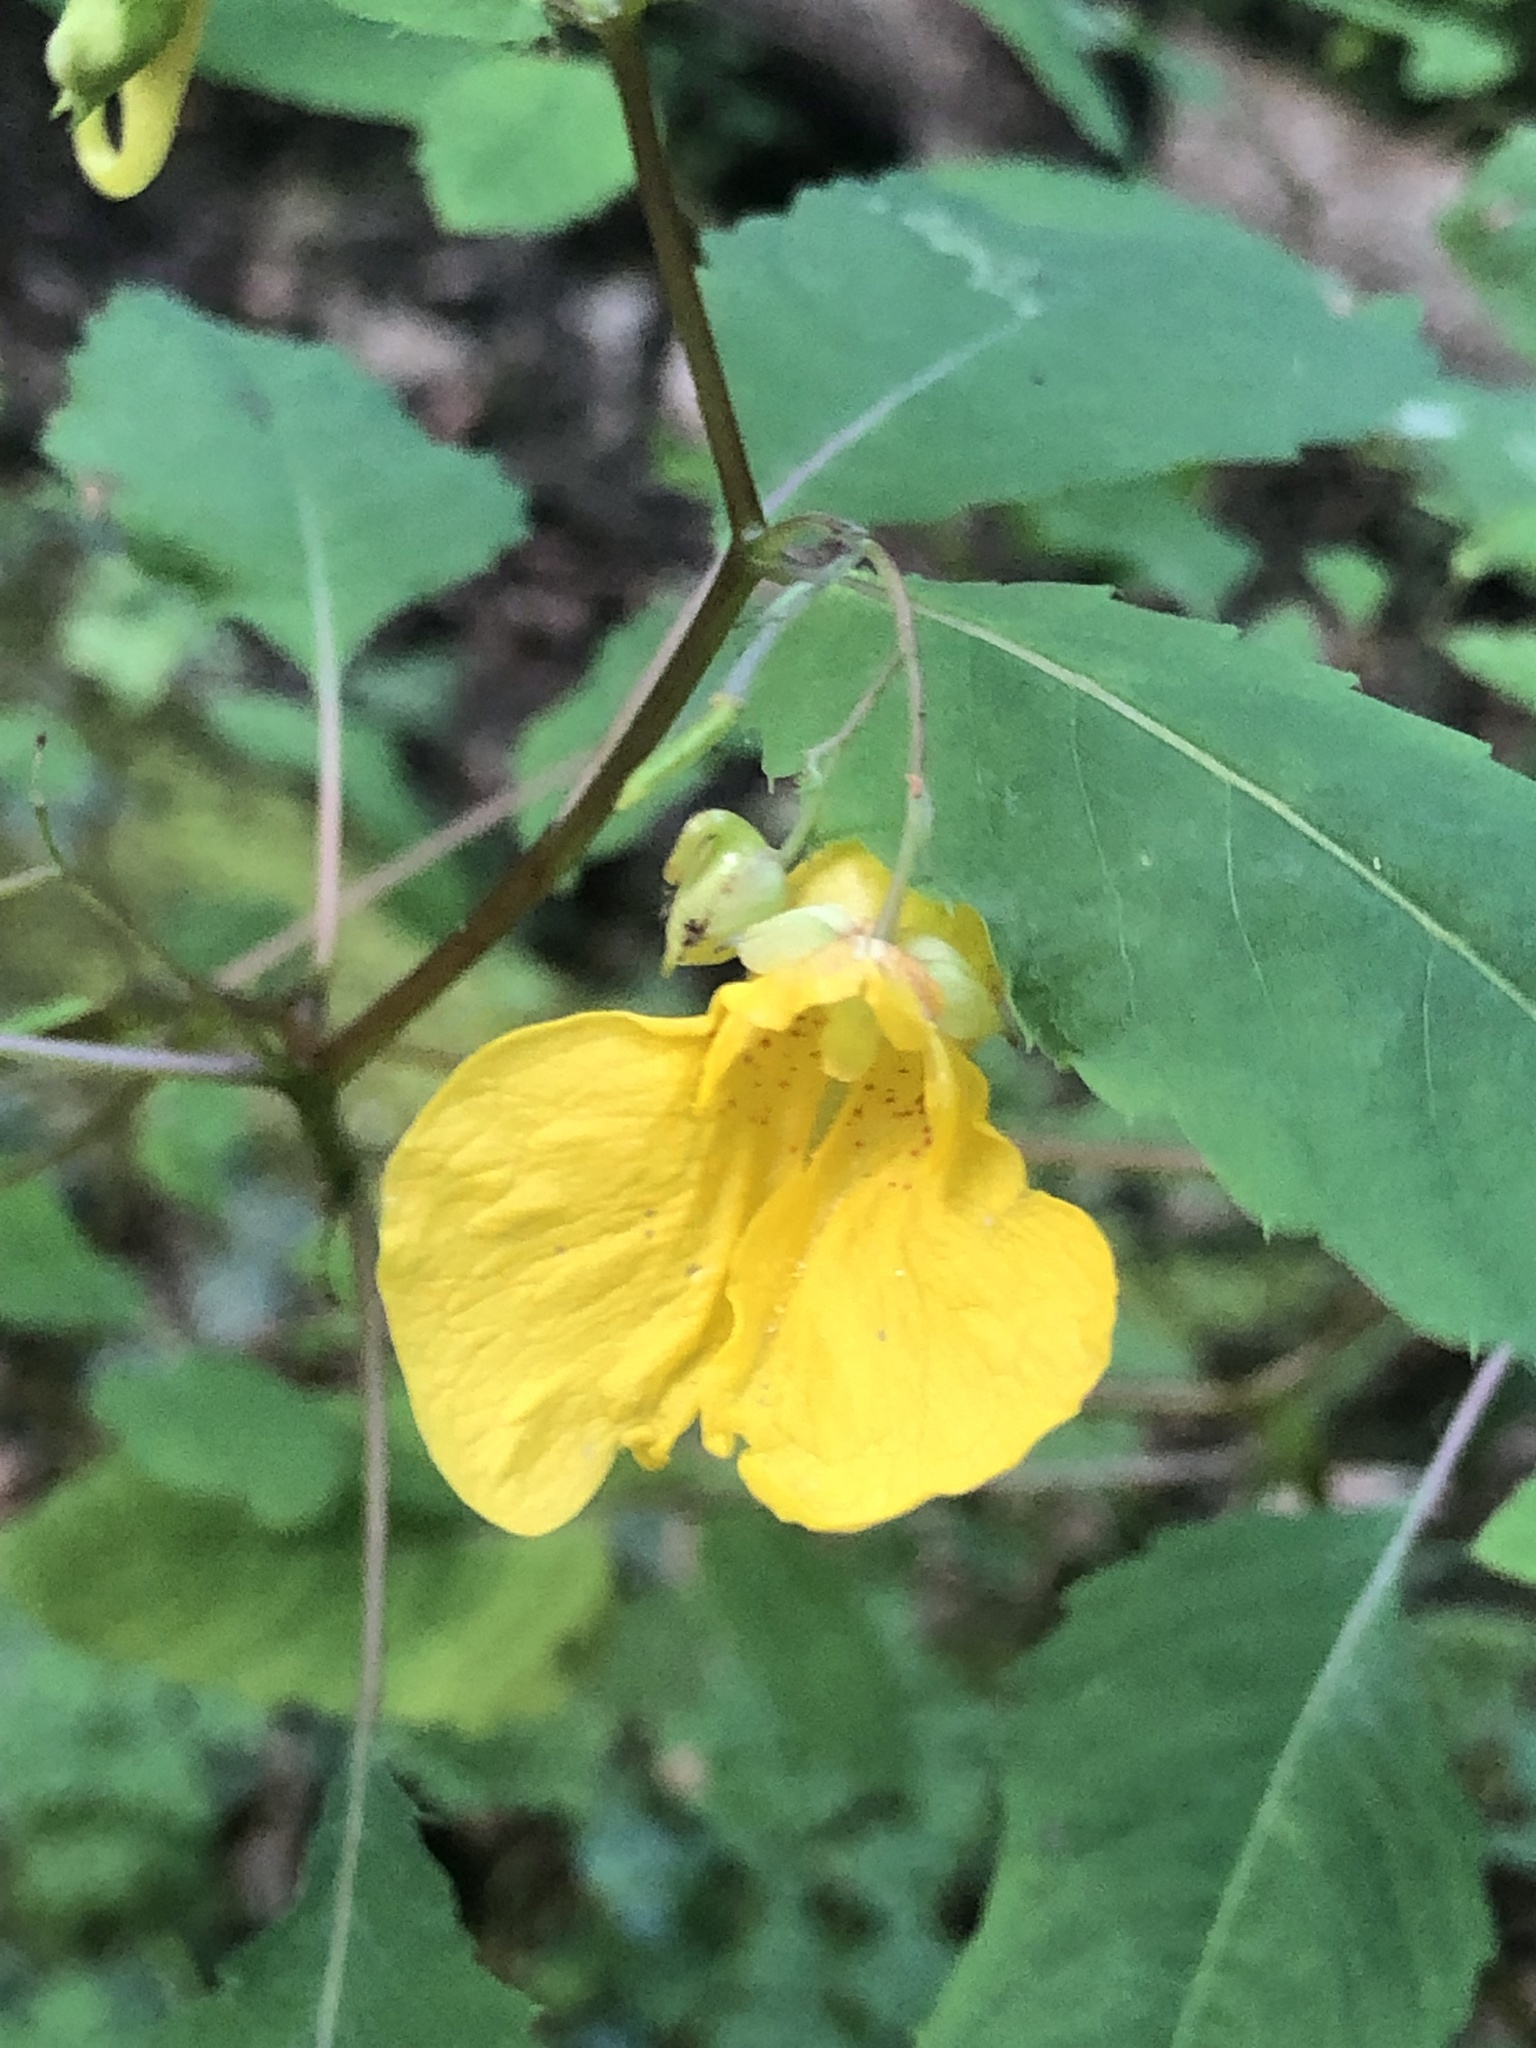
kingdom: Plantae
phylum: Tracheophyta
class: Magnoliopsida
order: Ericales
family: Balsaminaceae
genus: Impatiens
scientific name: Impatiens noli-tangere
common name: Touch-me-not balsam
